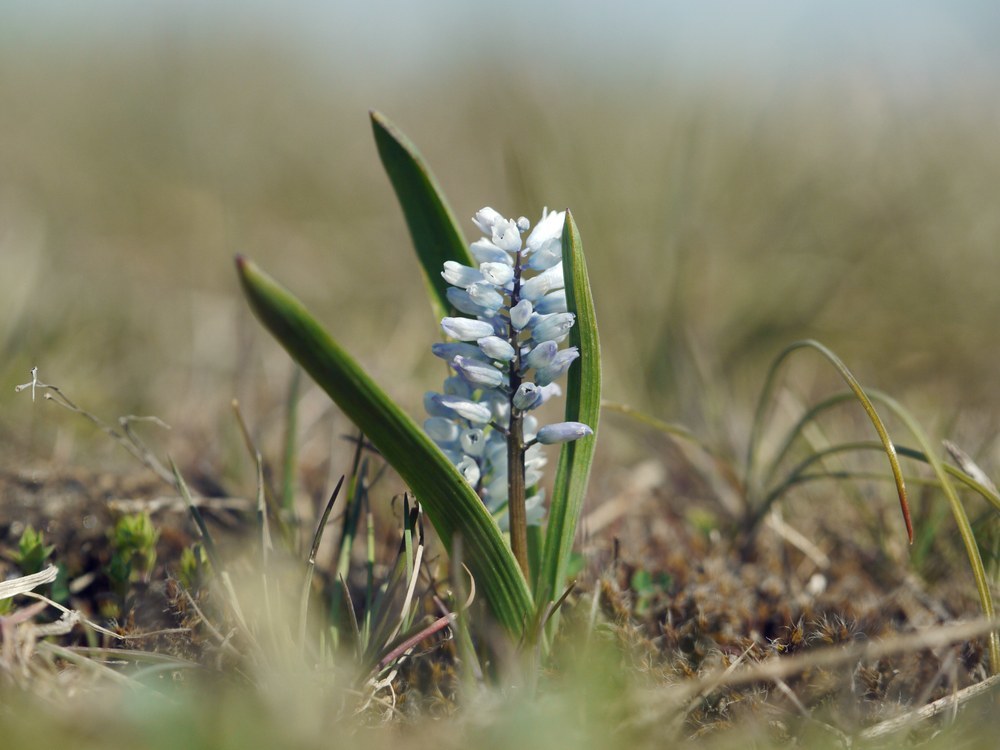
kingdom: Plantae
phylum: Tracheophyta
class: Liliopsida
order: Asparagales
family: Asparagaceae
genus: Hyacinthella
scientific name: Hyacinthella leucophaea
